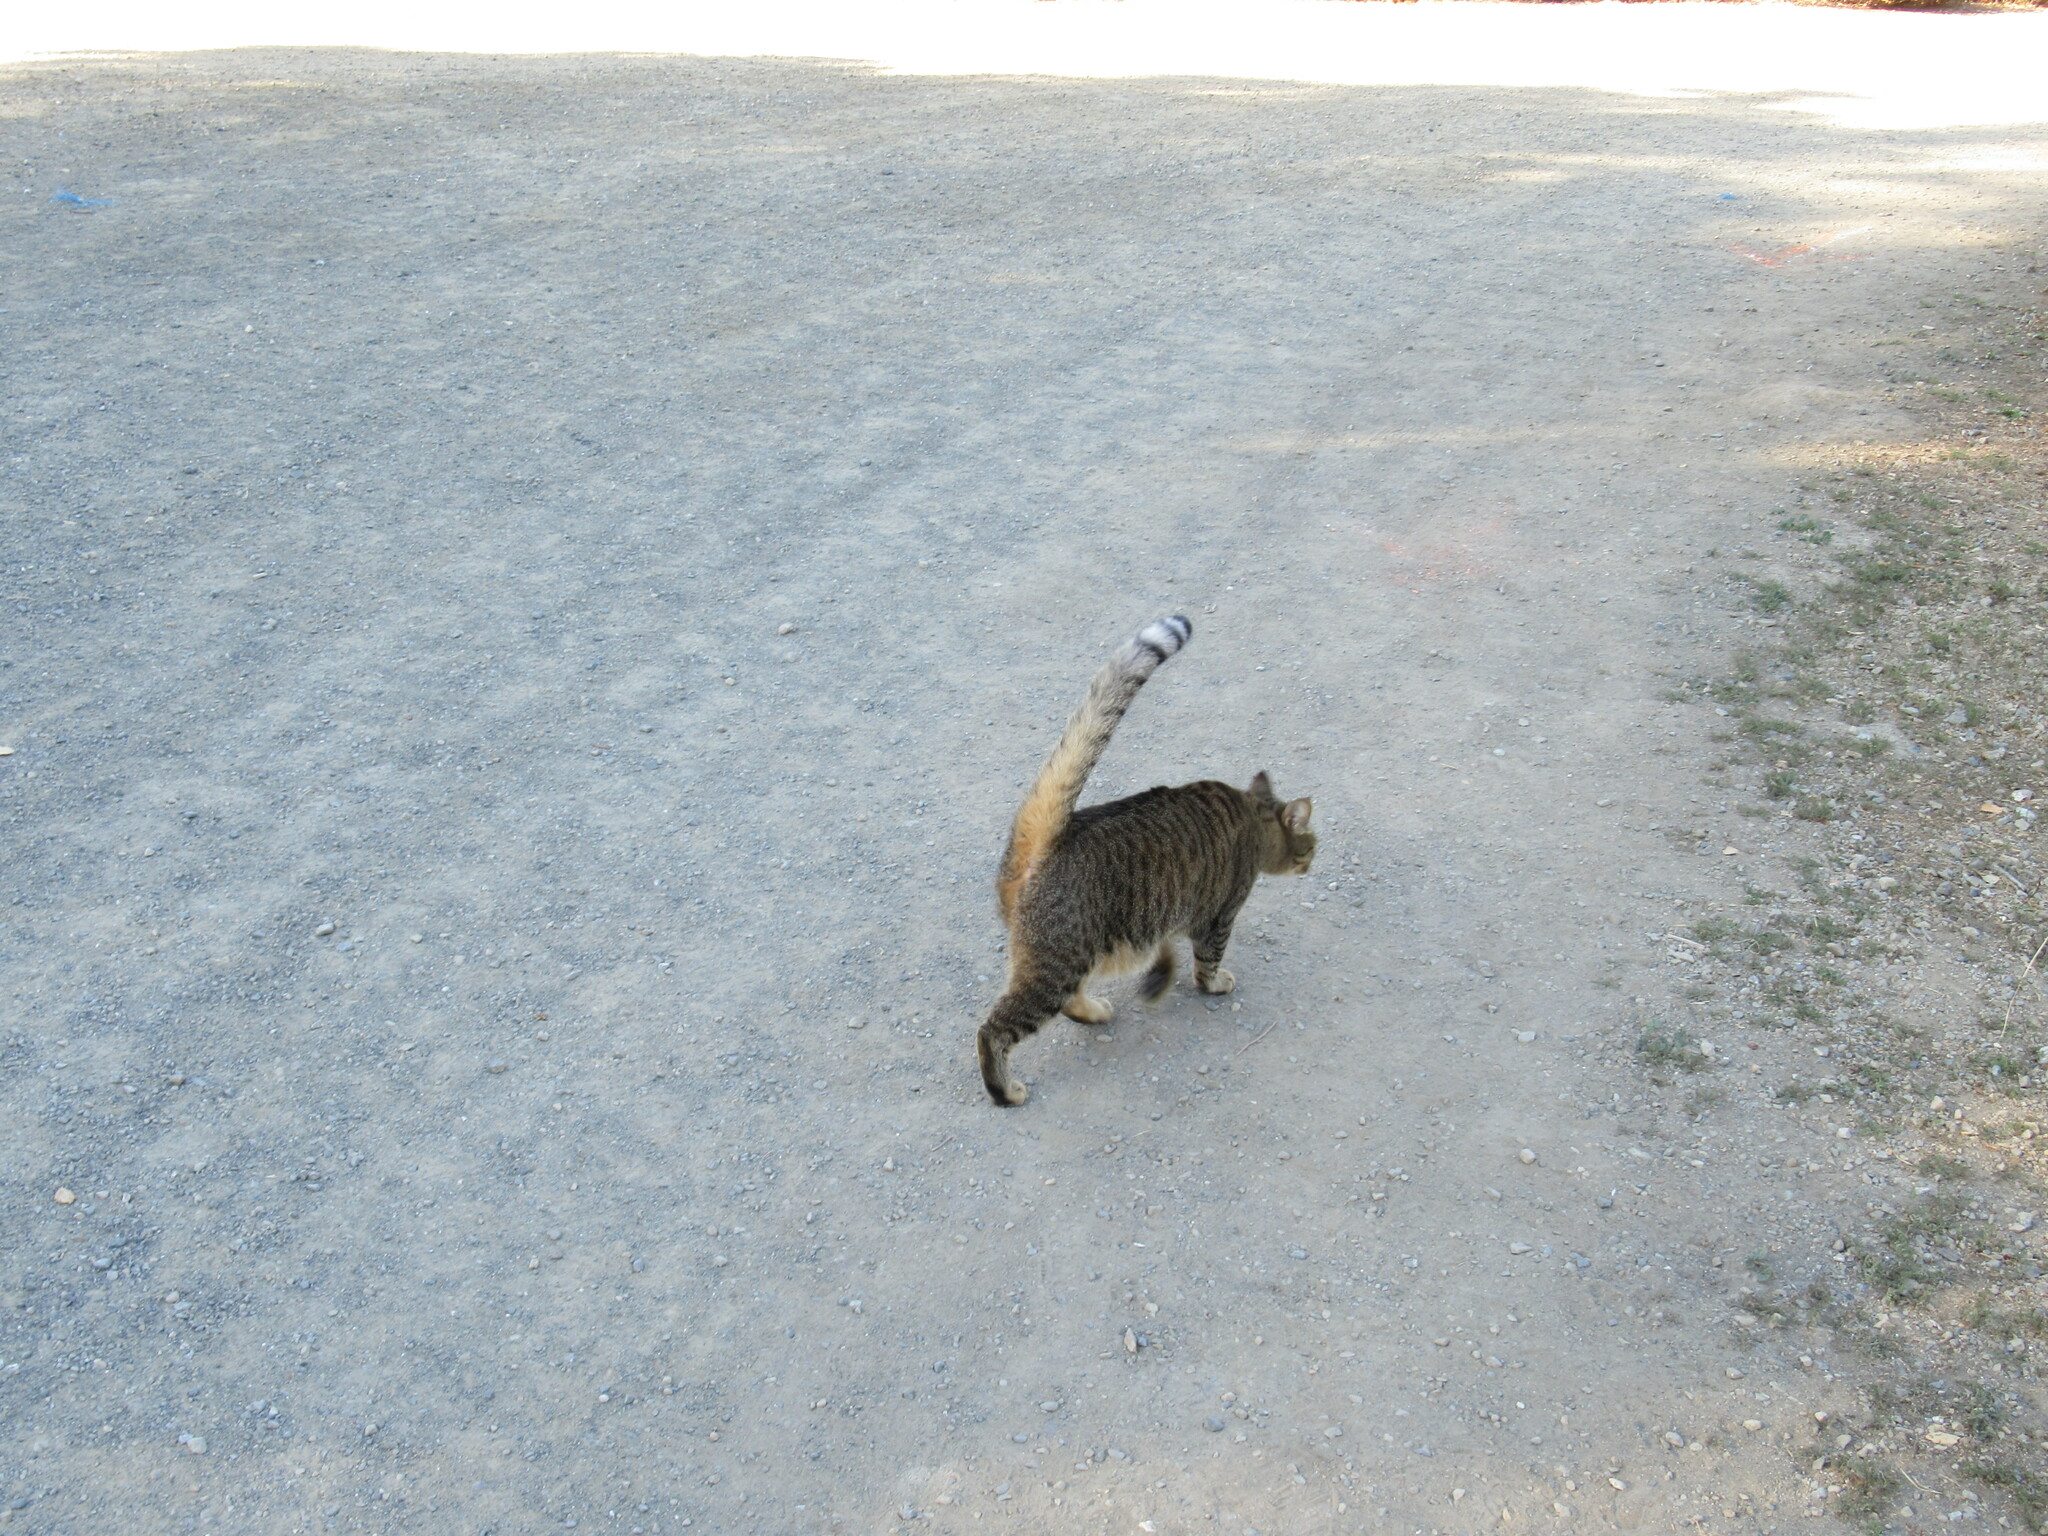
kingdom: Animalia
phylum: Chordata
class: Mammalia
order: Carnivora
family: Felidae
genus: Felis
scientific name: Felis catus
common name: Domestic cat
